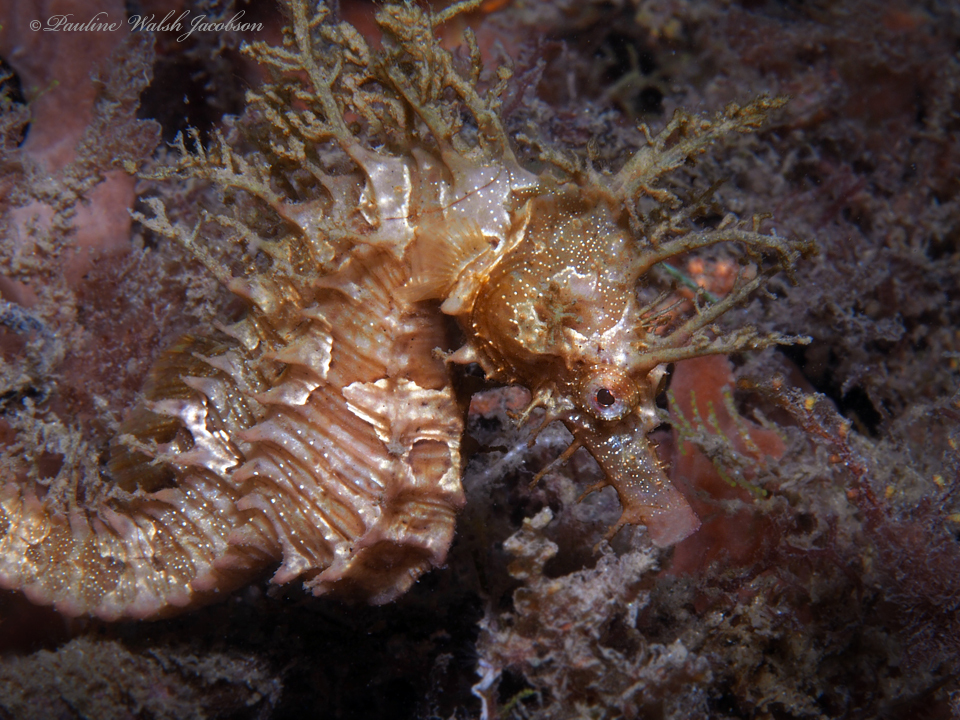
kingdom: Animalia
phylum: Chordata
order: Syngnathiformes
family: Syngnathidae
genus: Hippocampus
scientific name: Hippocampus erectus
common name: Lined seahorse
